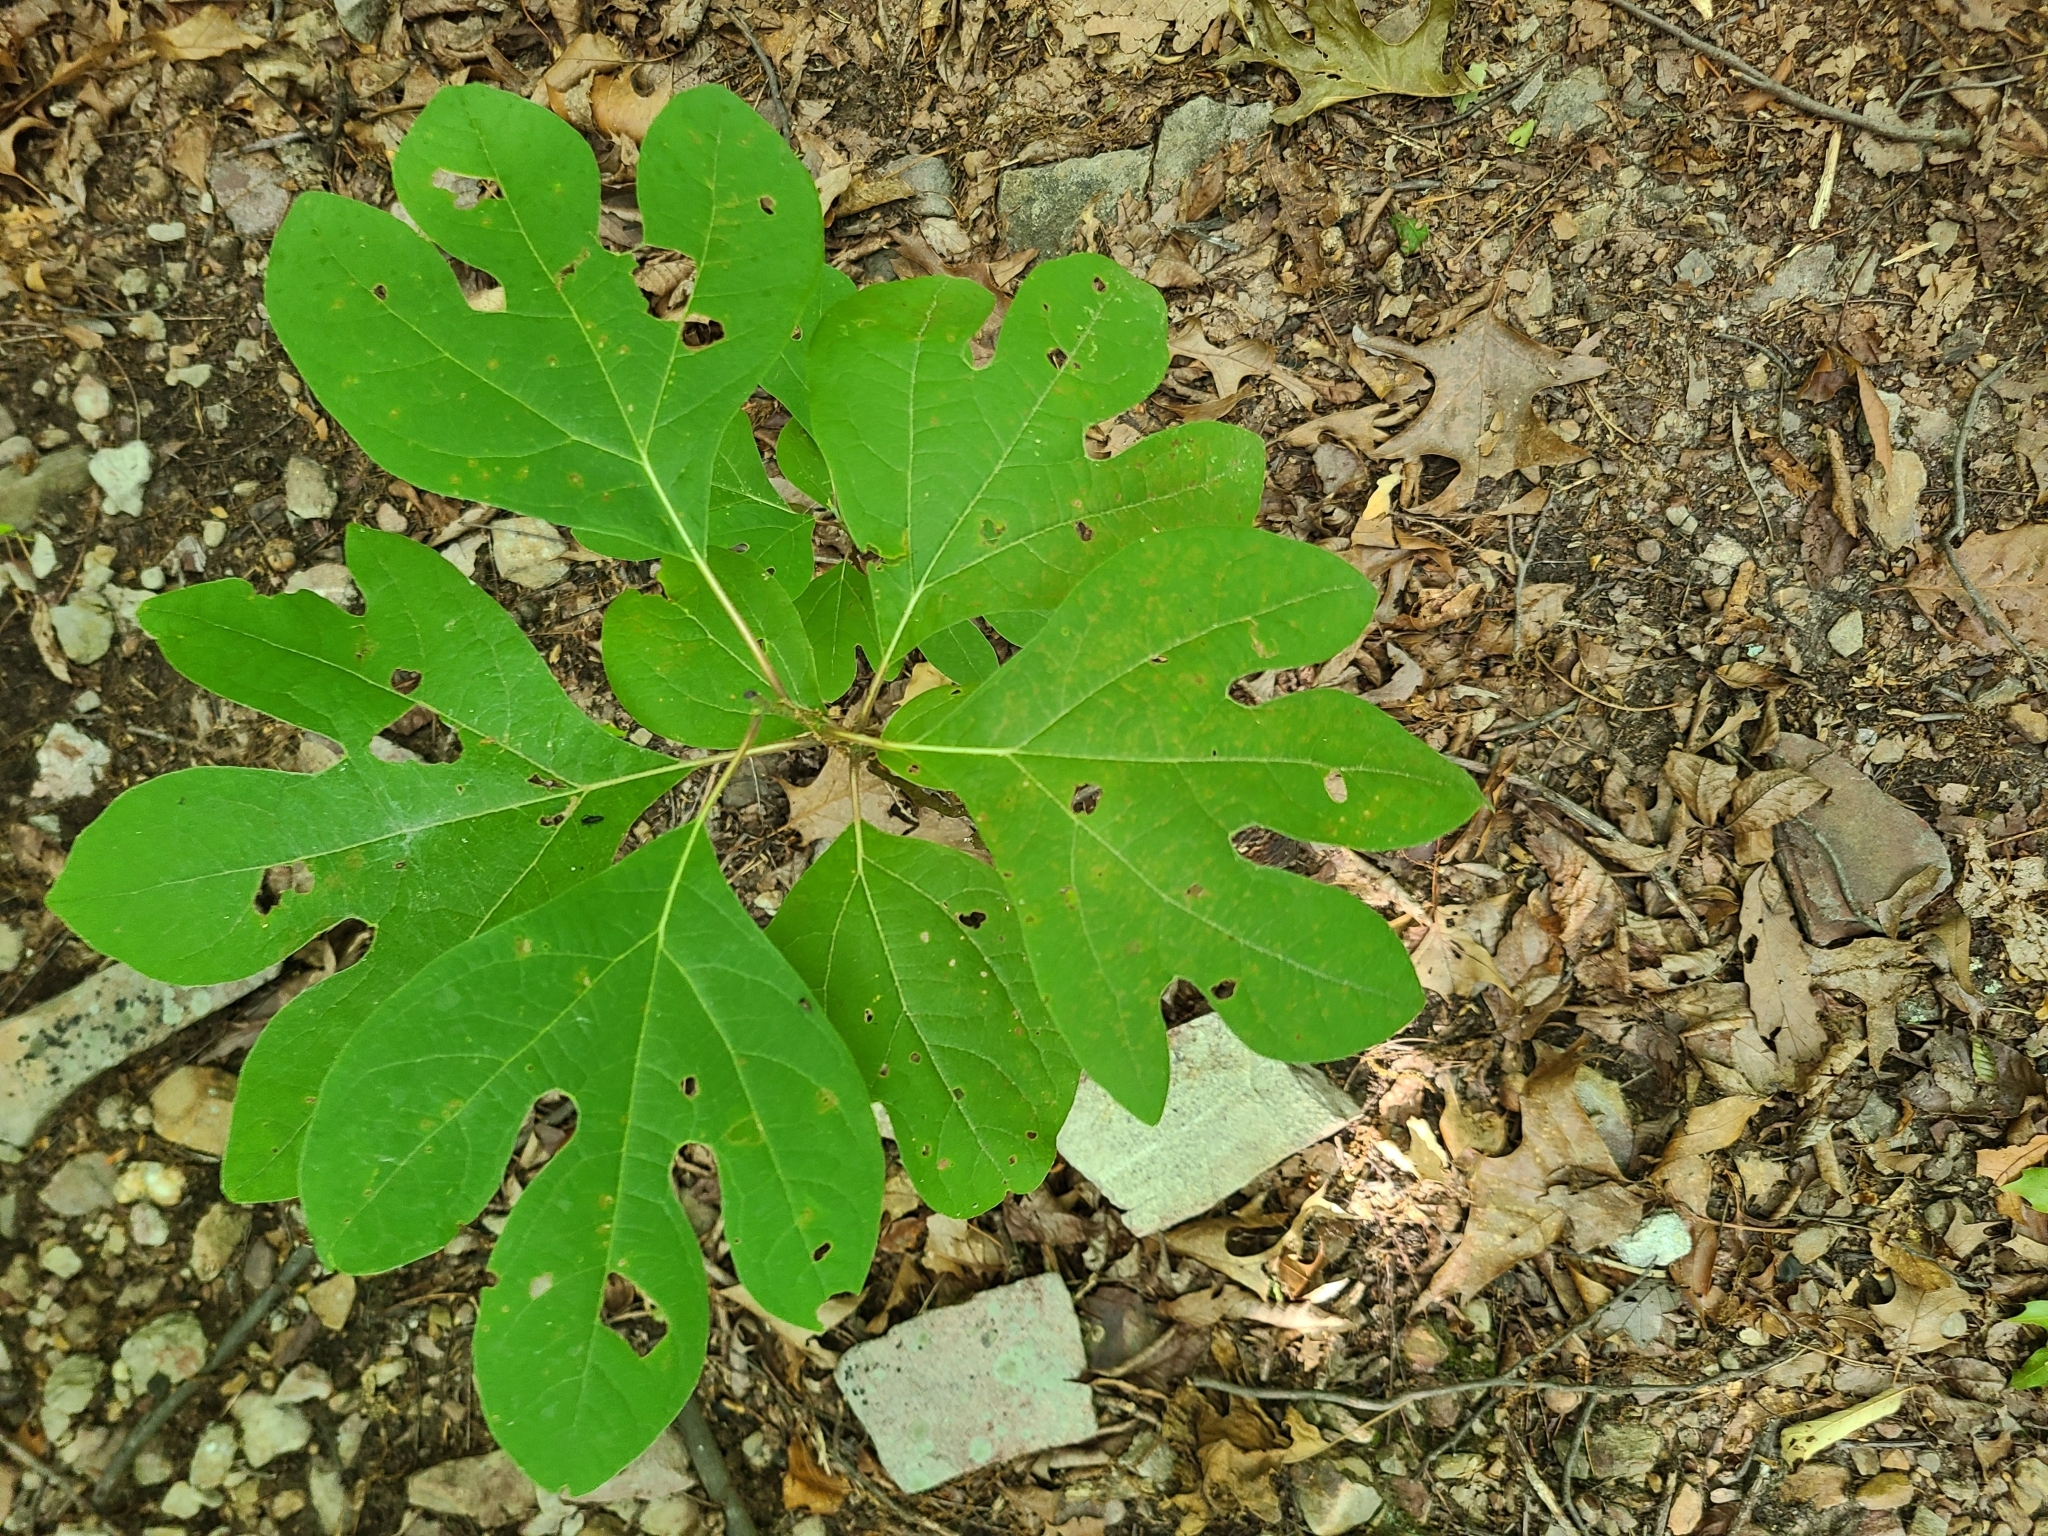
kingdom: Plantae
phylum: Tracheophyta
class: Magnoliopsida
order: Laurales
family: Lauraceae
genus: Sassafras
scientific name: Sassafras albidum
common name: Sassafras
